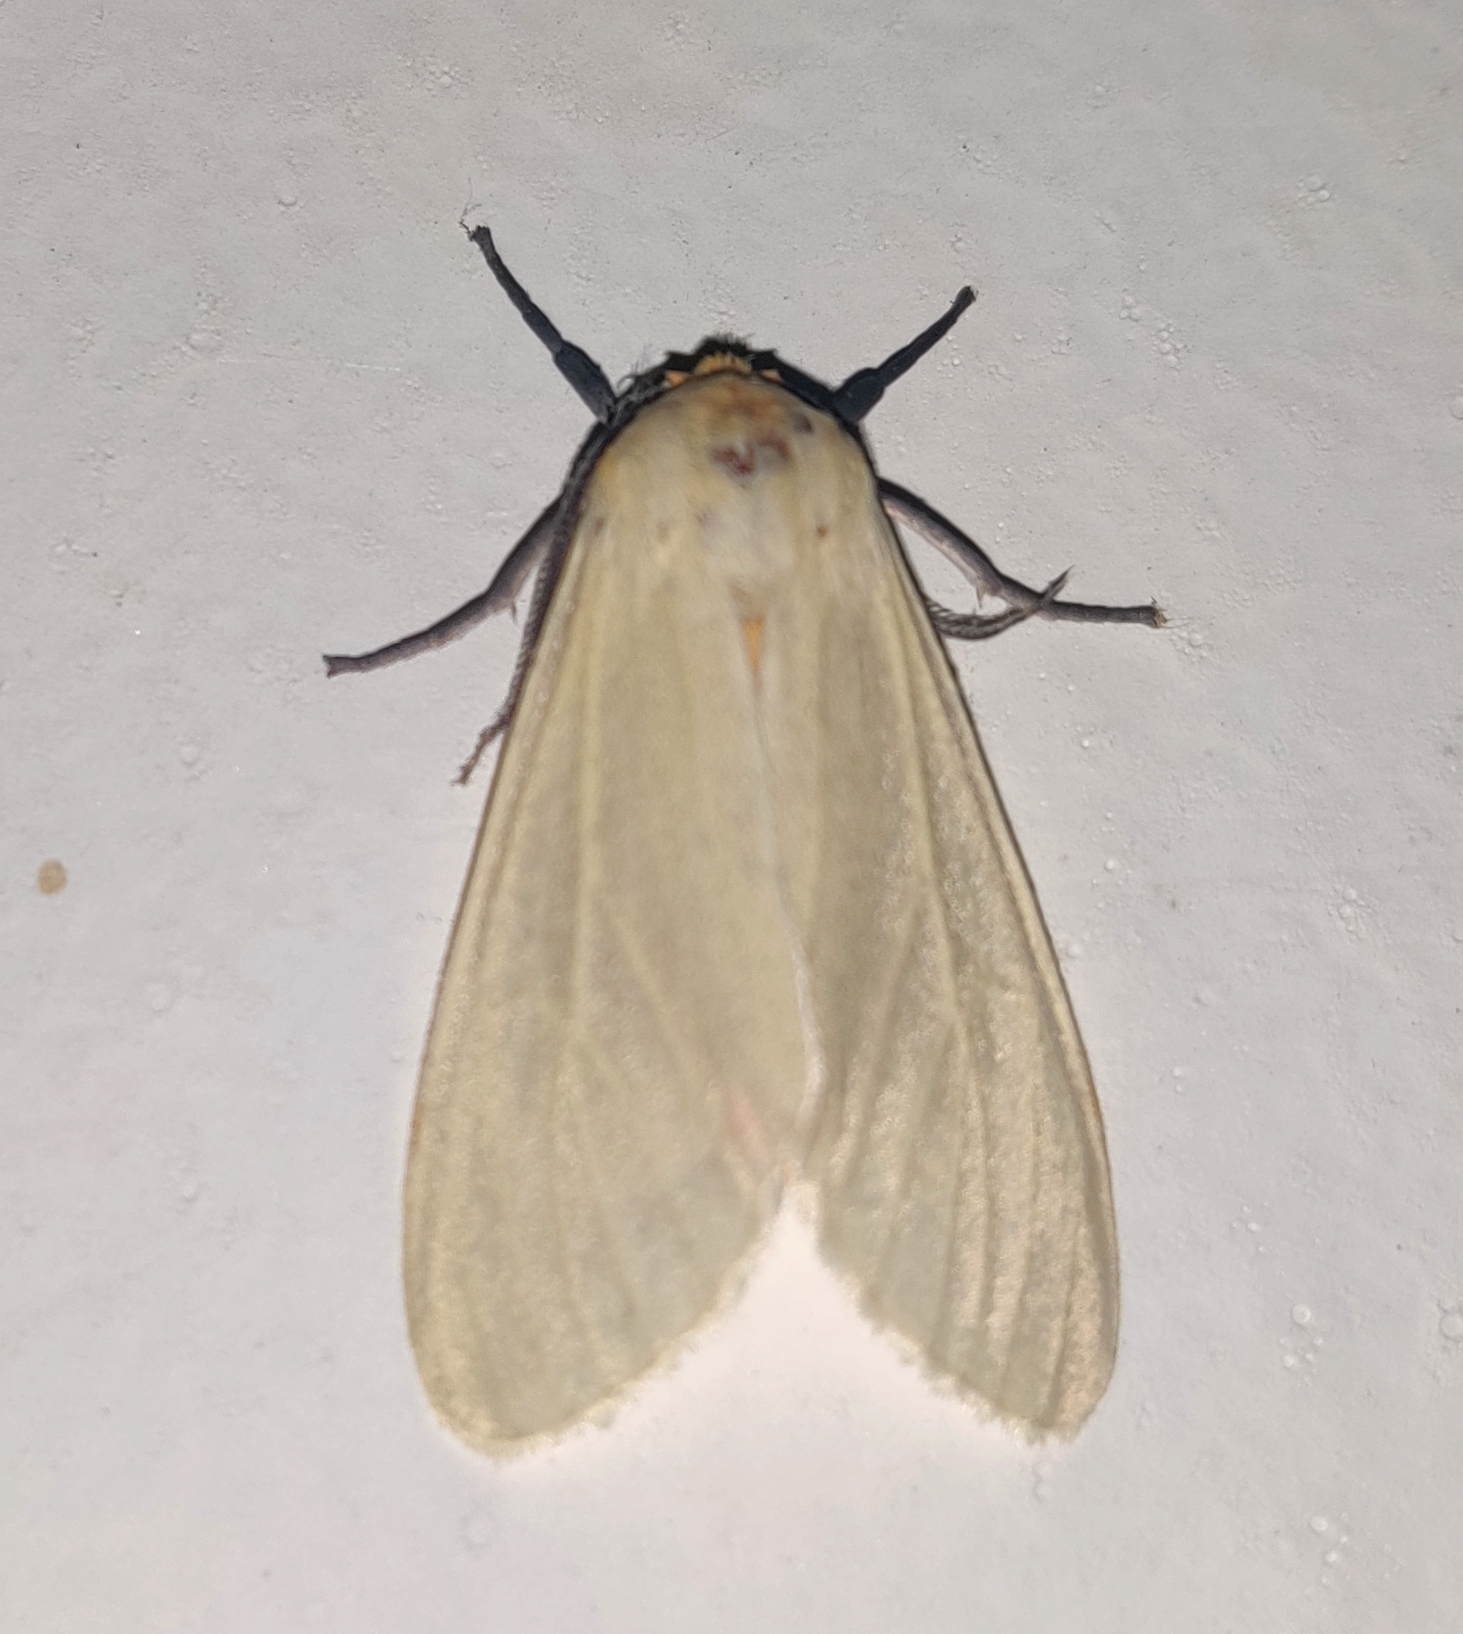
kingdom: Animalia
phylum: Arthropoda
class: Insecta
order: Lepidoptera
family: Erebidae
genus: Pareuchaetes
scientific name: Pareuchaetes pseudoinsulata
